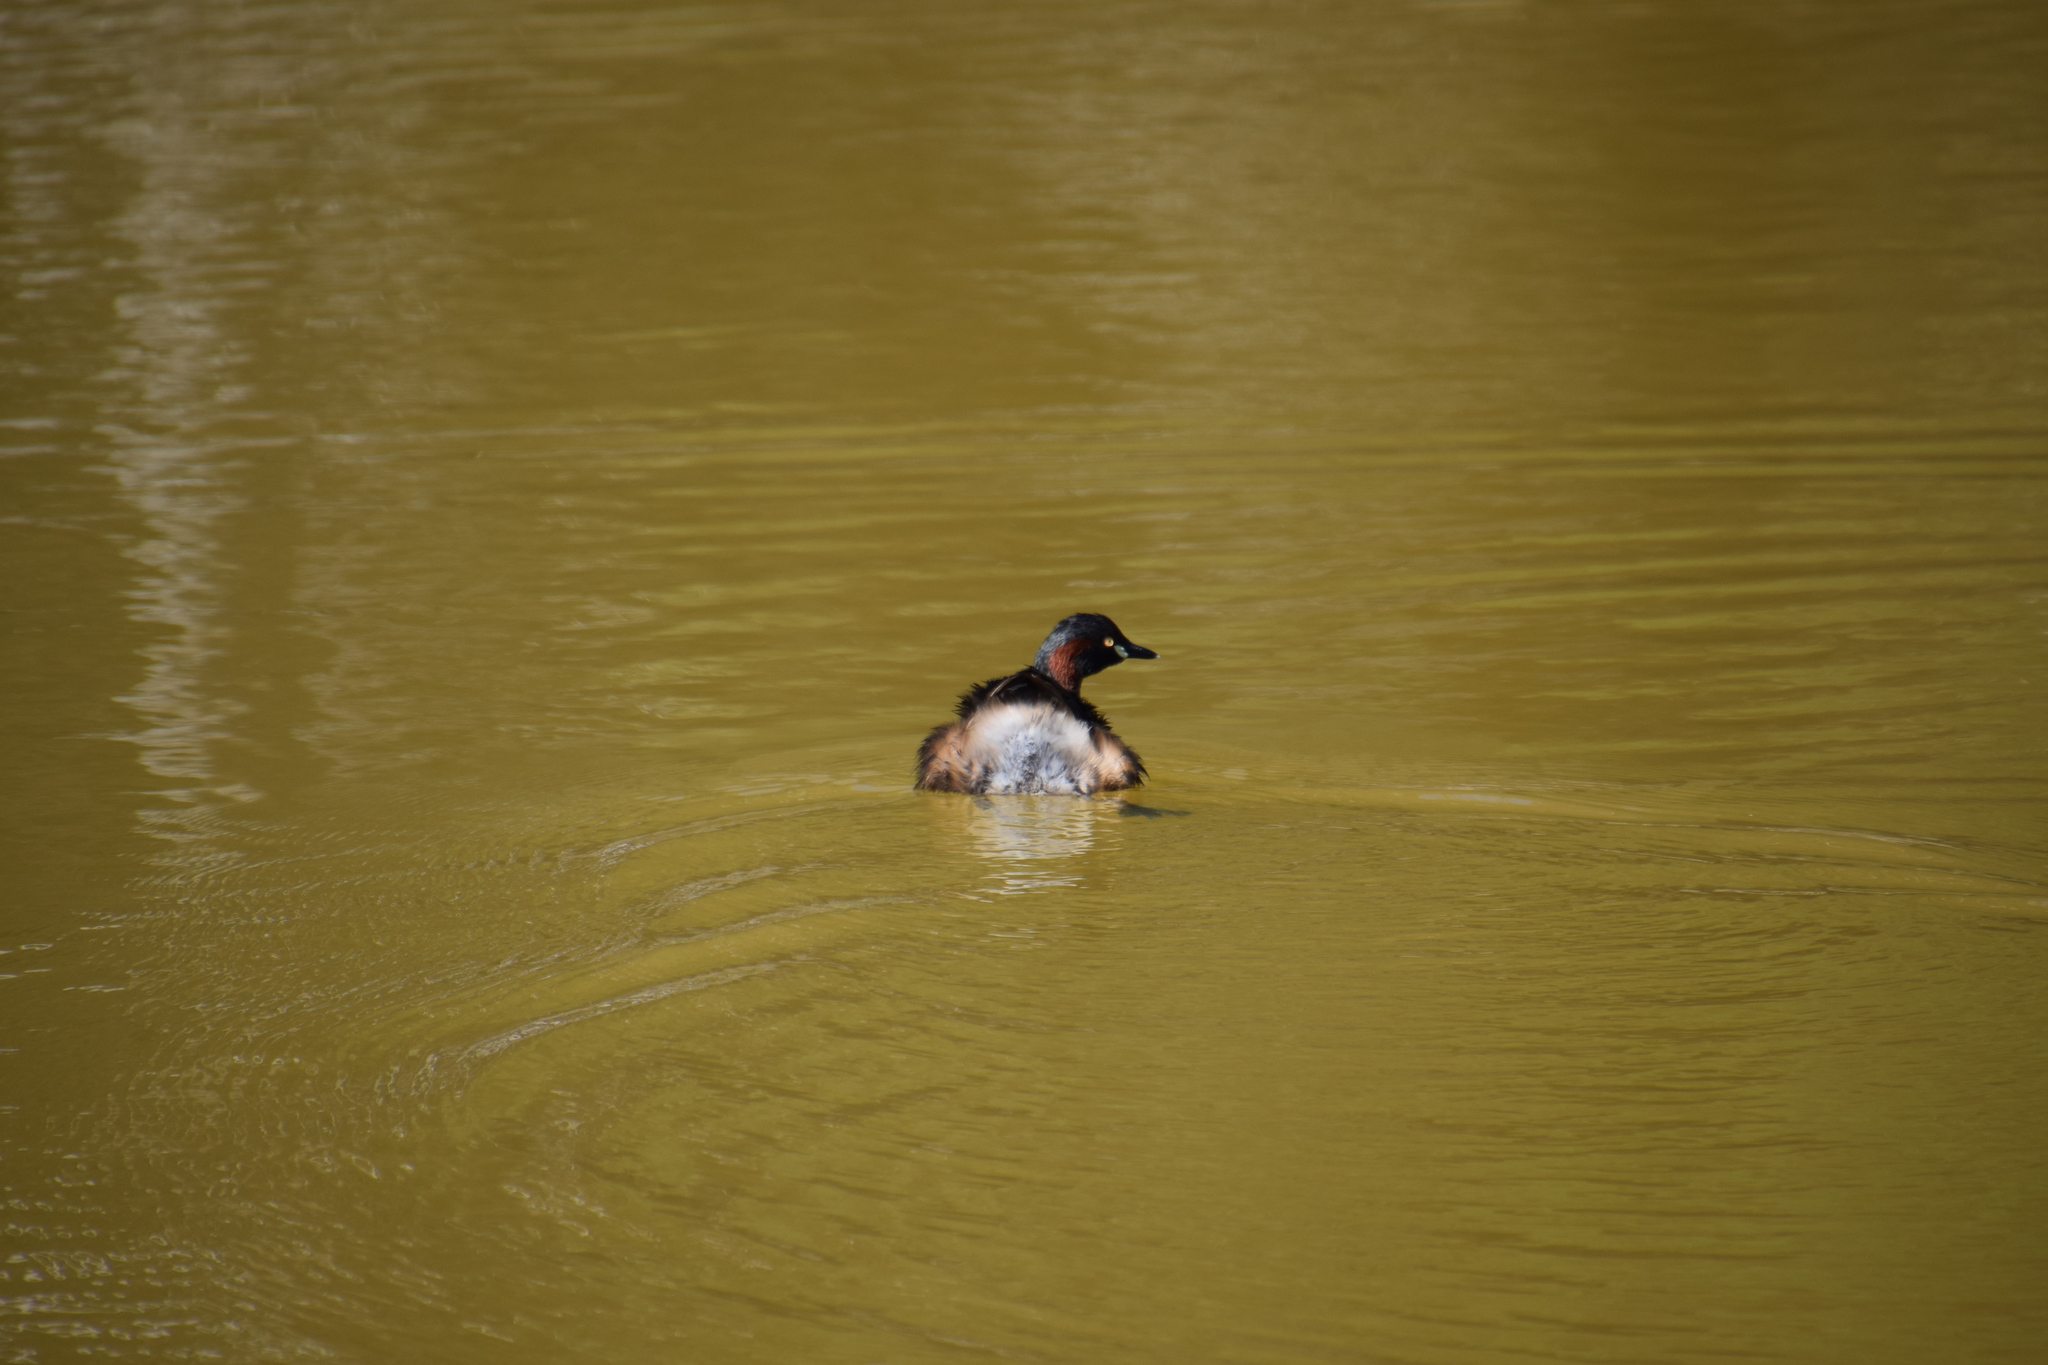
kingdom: Animalia
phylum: Chordata
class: Aves
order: Podicipediformes
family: Podicipedidae
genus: Tachybaptus
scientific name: Tachybaptus novaehollandiae
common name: Australasian grebe
